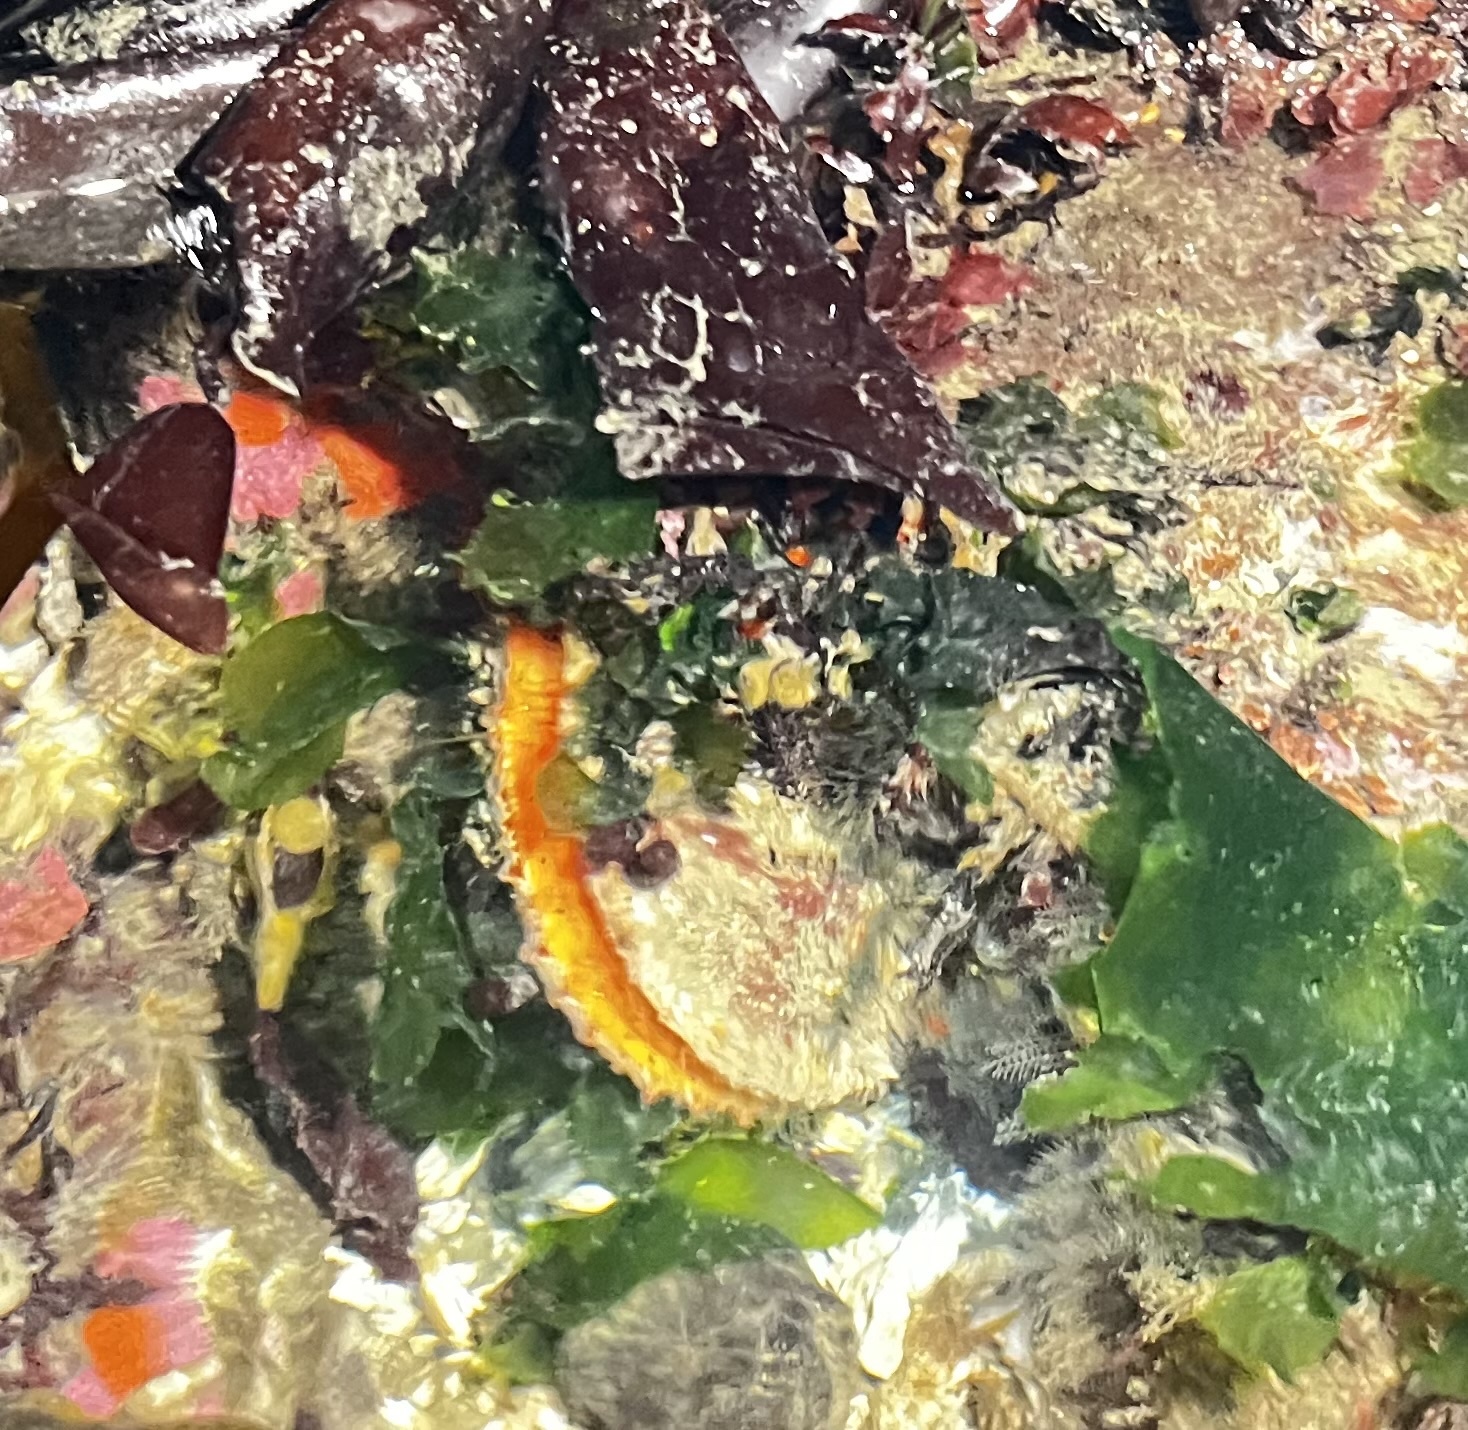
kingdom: Animalia
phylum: Mollusca
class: Bivalvia
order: Pectinida
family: Pectinidae
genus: Crassadoma
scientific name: Crassadoma gigantea
